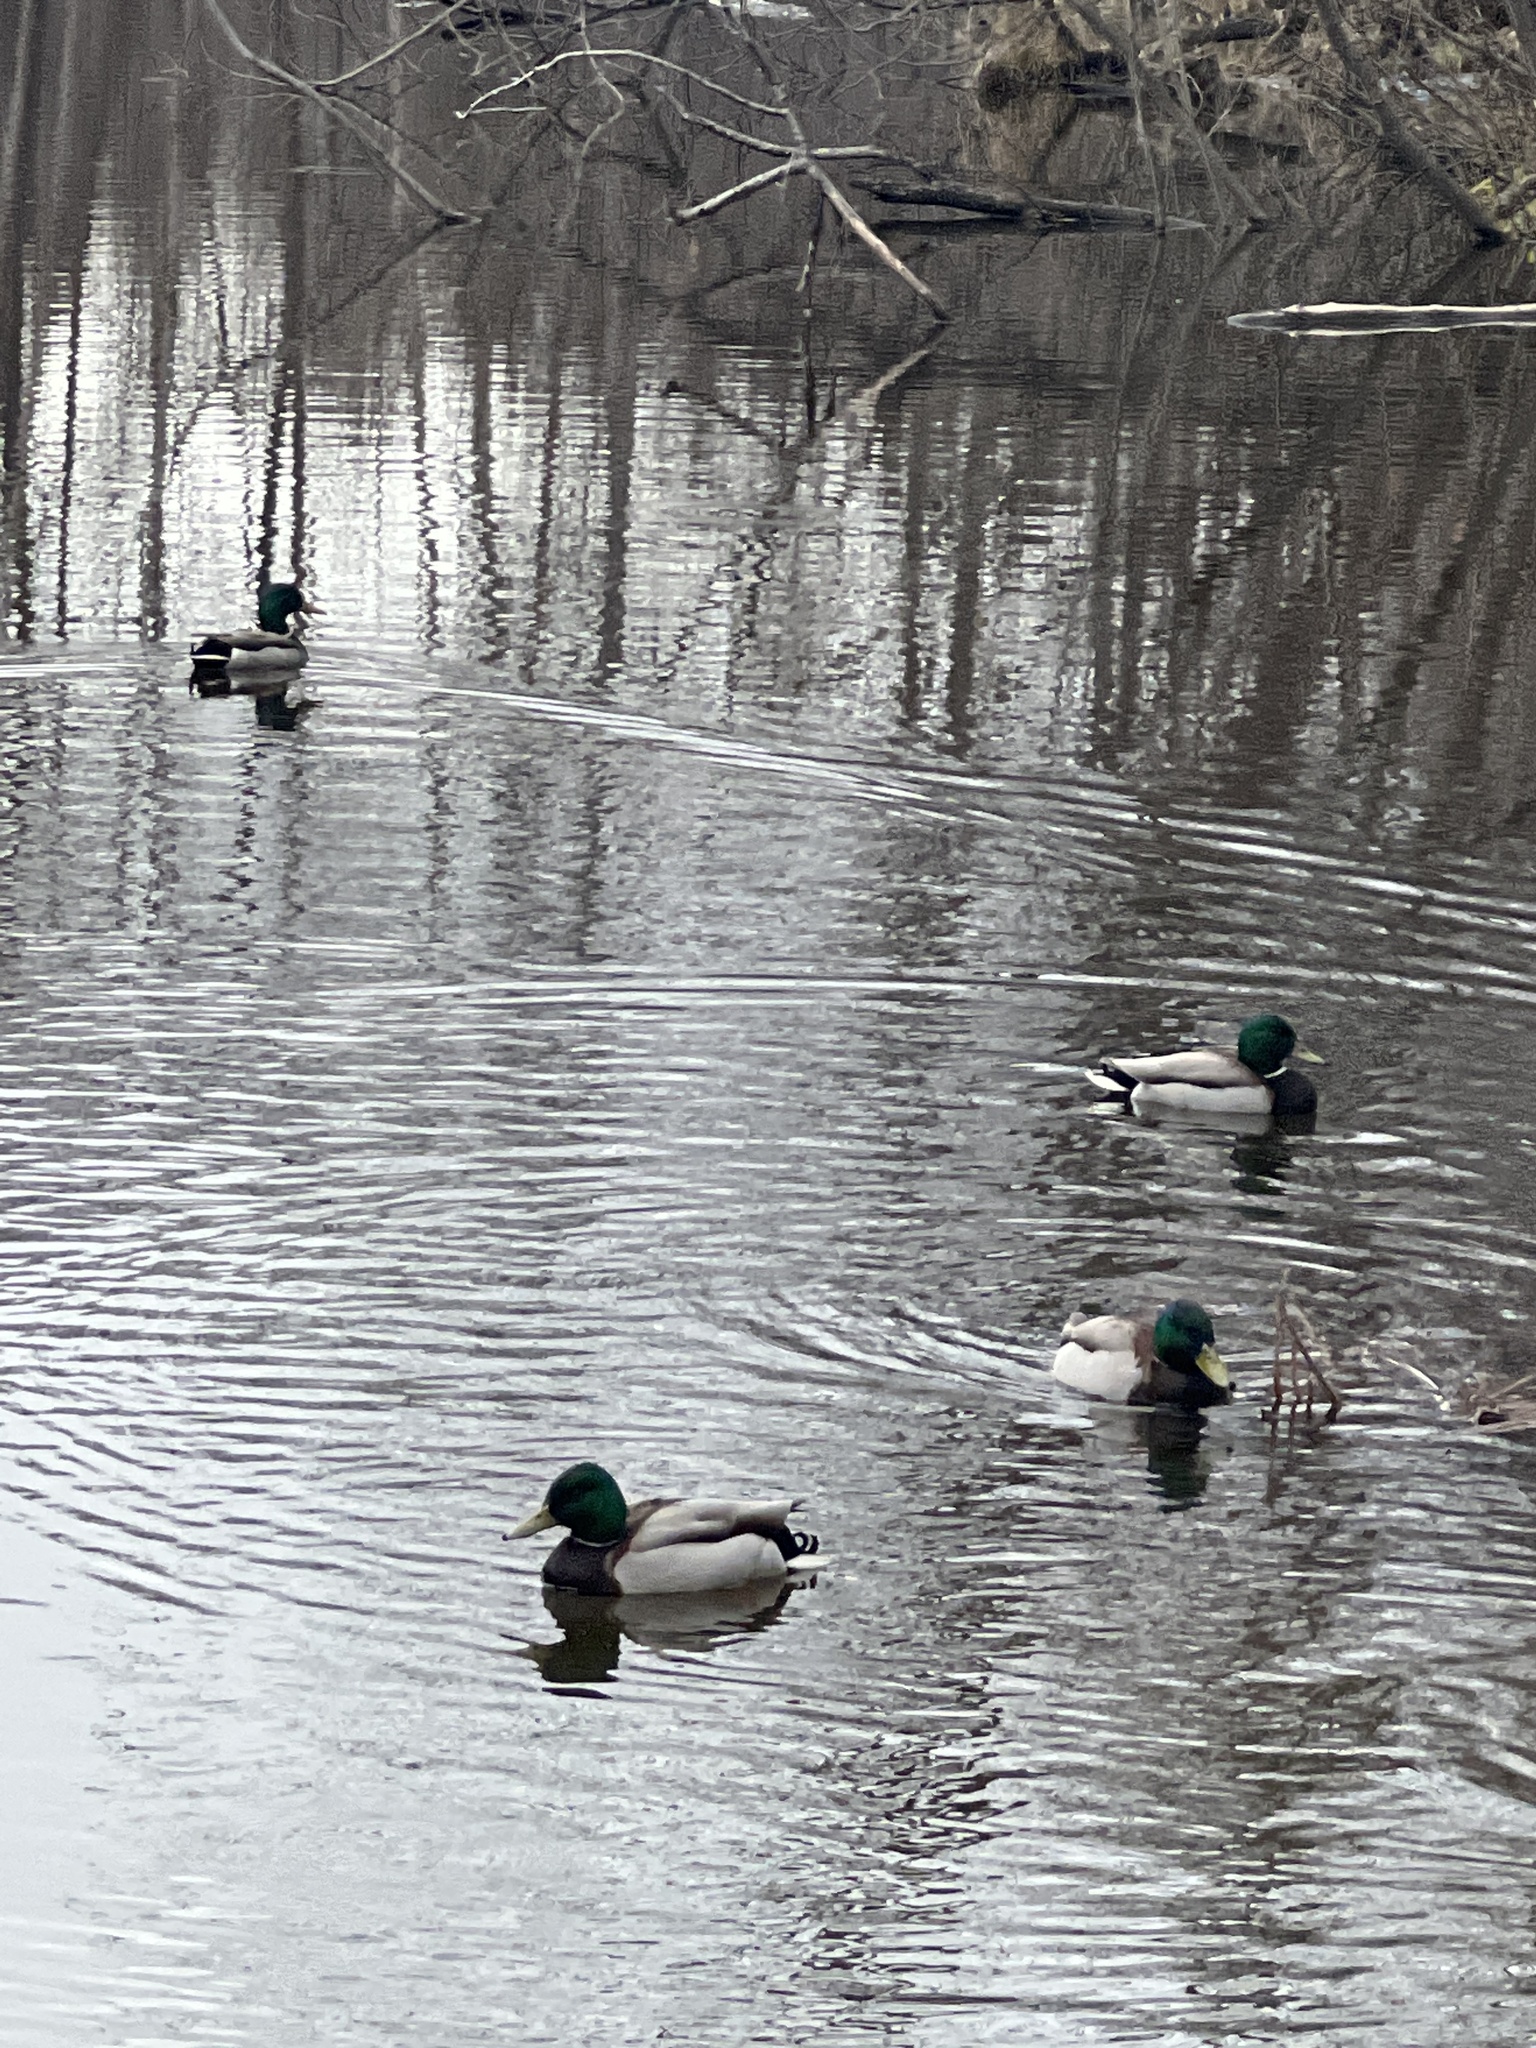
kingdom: Animalia
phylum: Chordata
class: Aves
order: Anseriformes
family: Anatidae
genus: Anas
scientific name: Anas platyrhynchos
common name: Mallard
